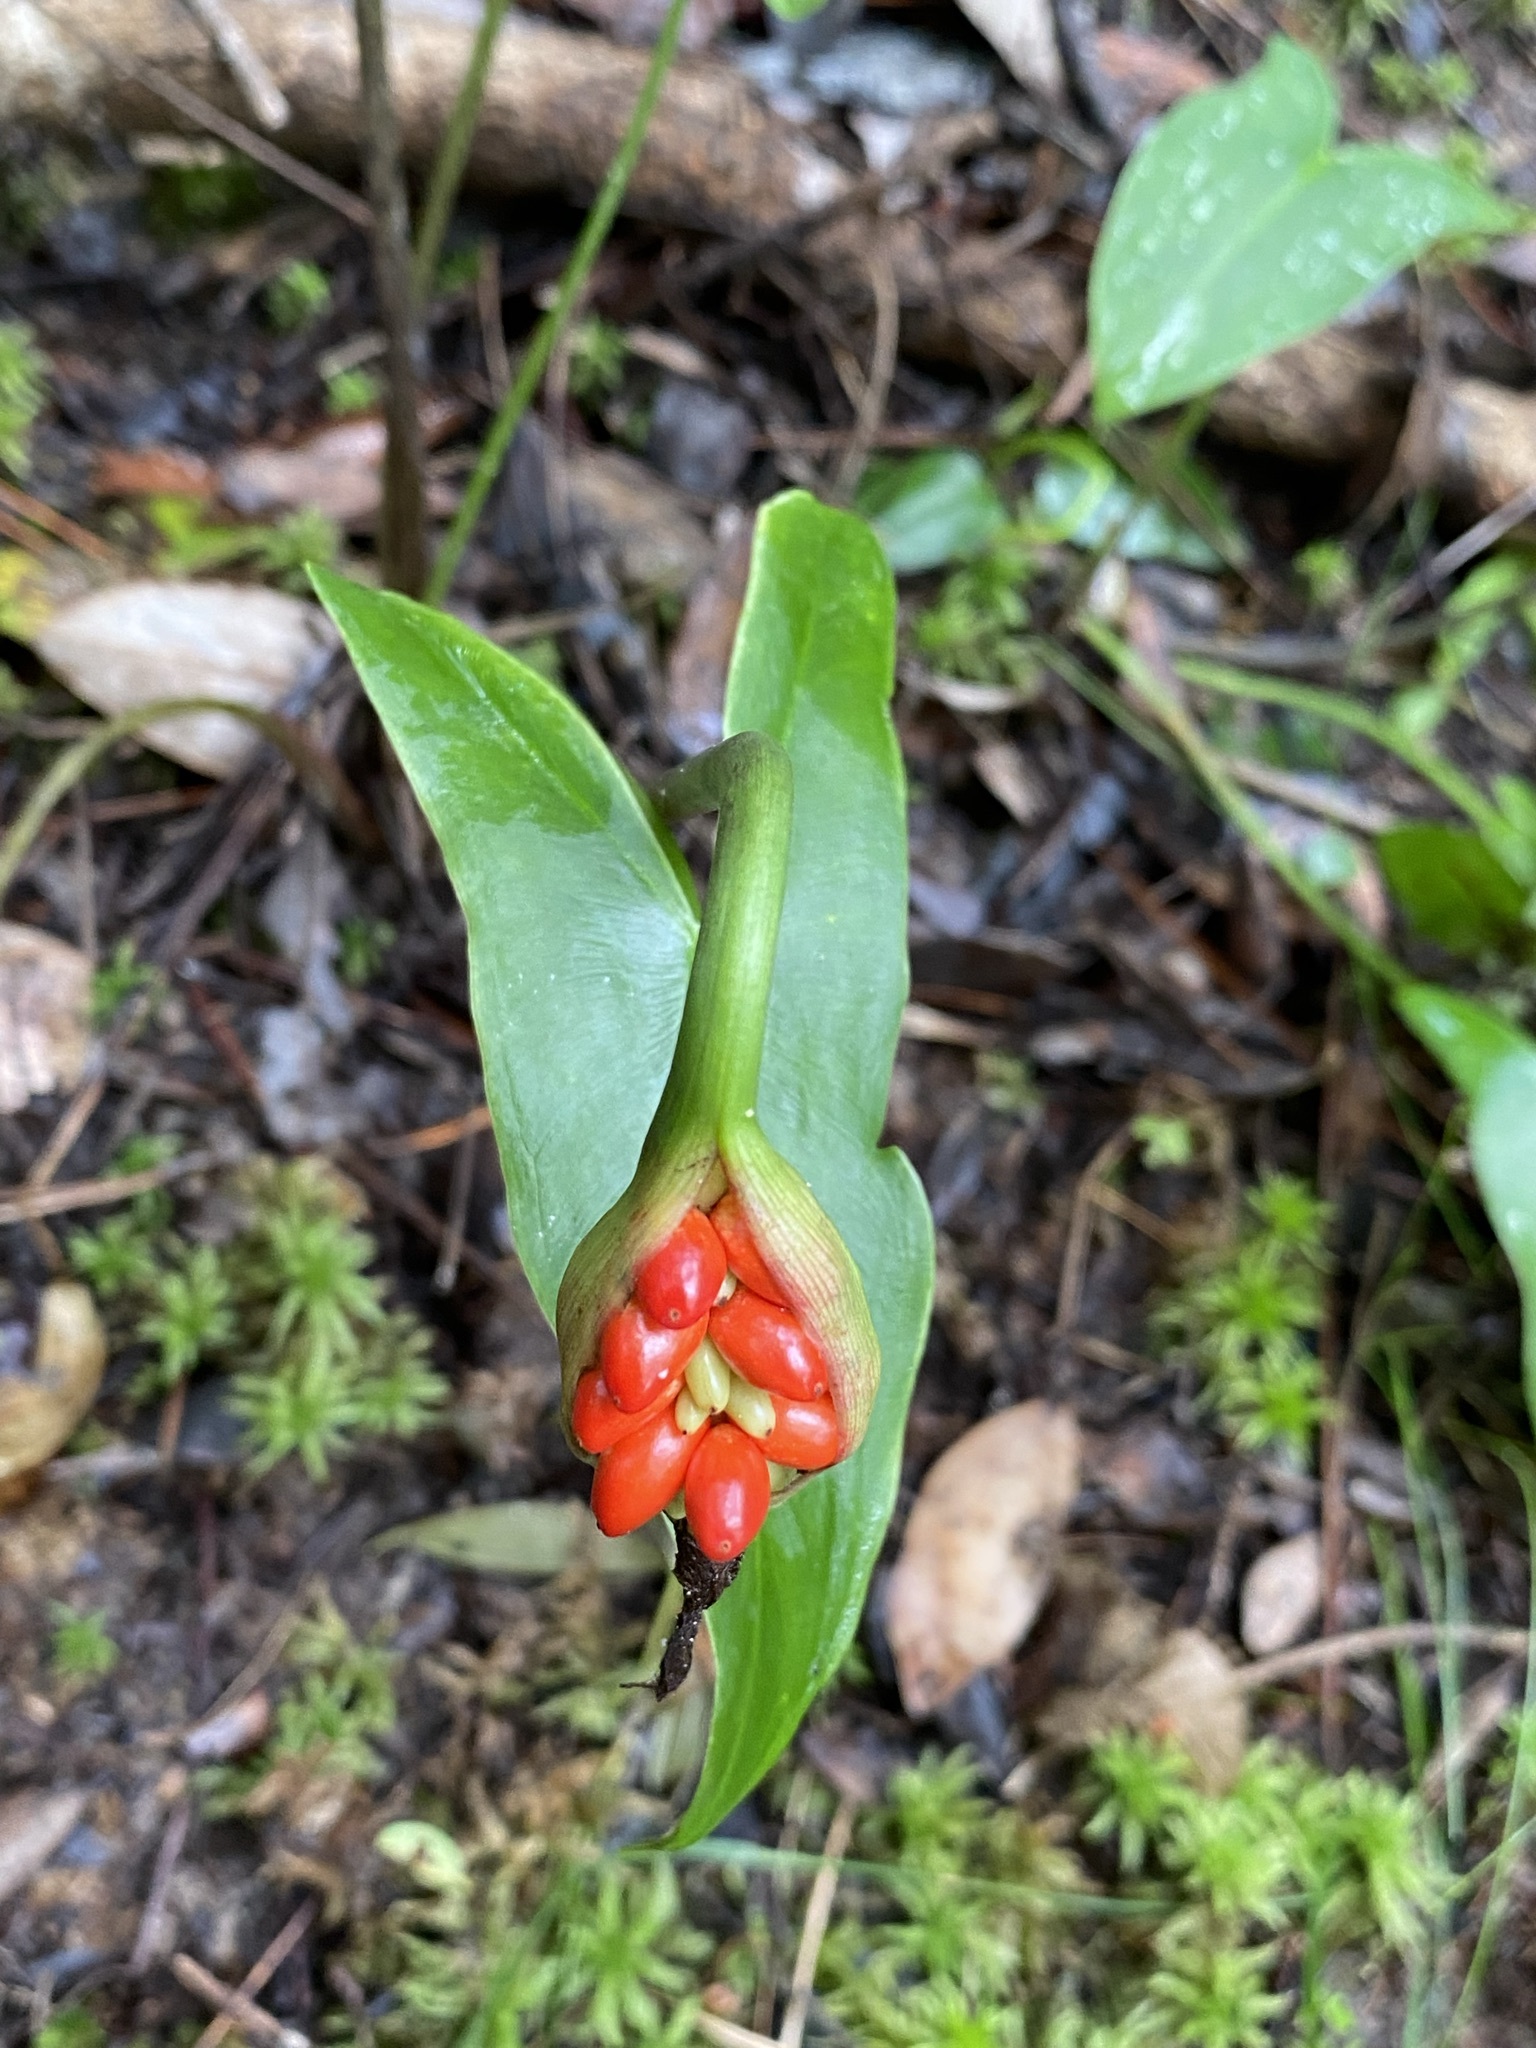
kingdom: Plantae
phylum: Tracheophyta
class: Liliopsida
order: Alismatales
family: Araceae
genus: Peltandra
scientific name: Peltandra sagittifolia
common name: White arrow arum
